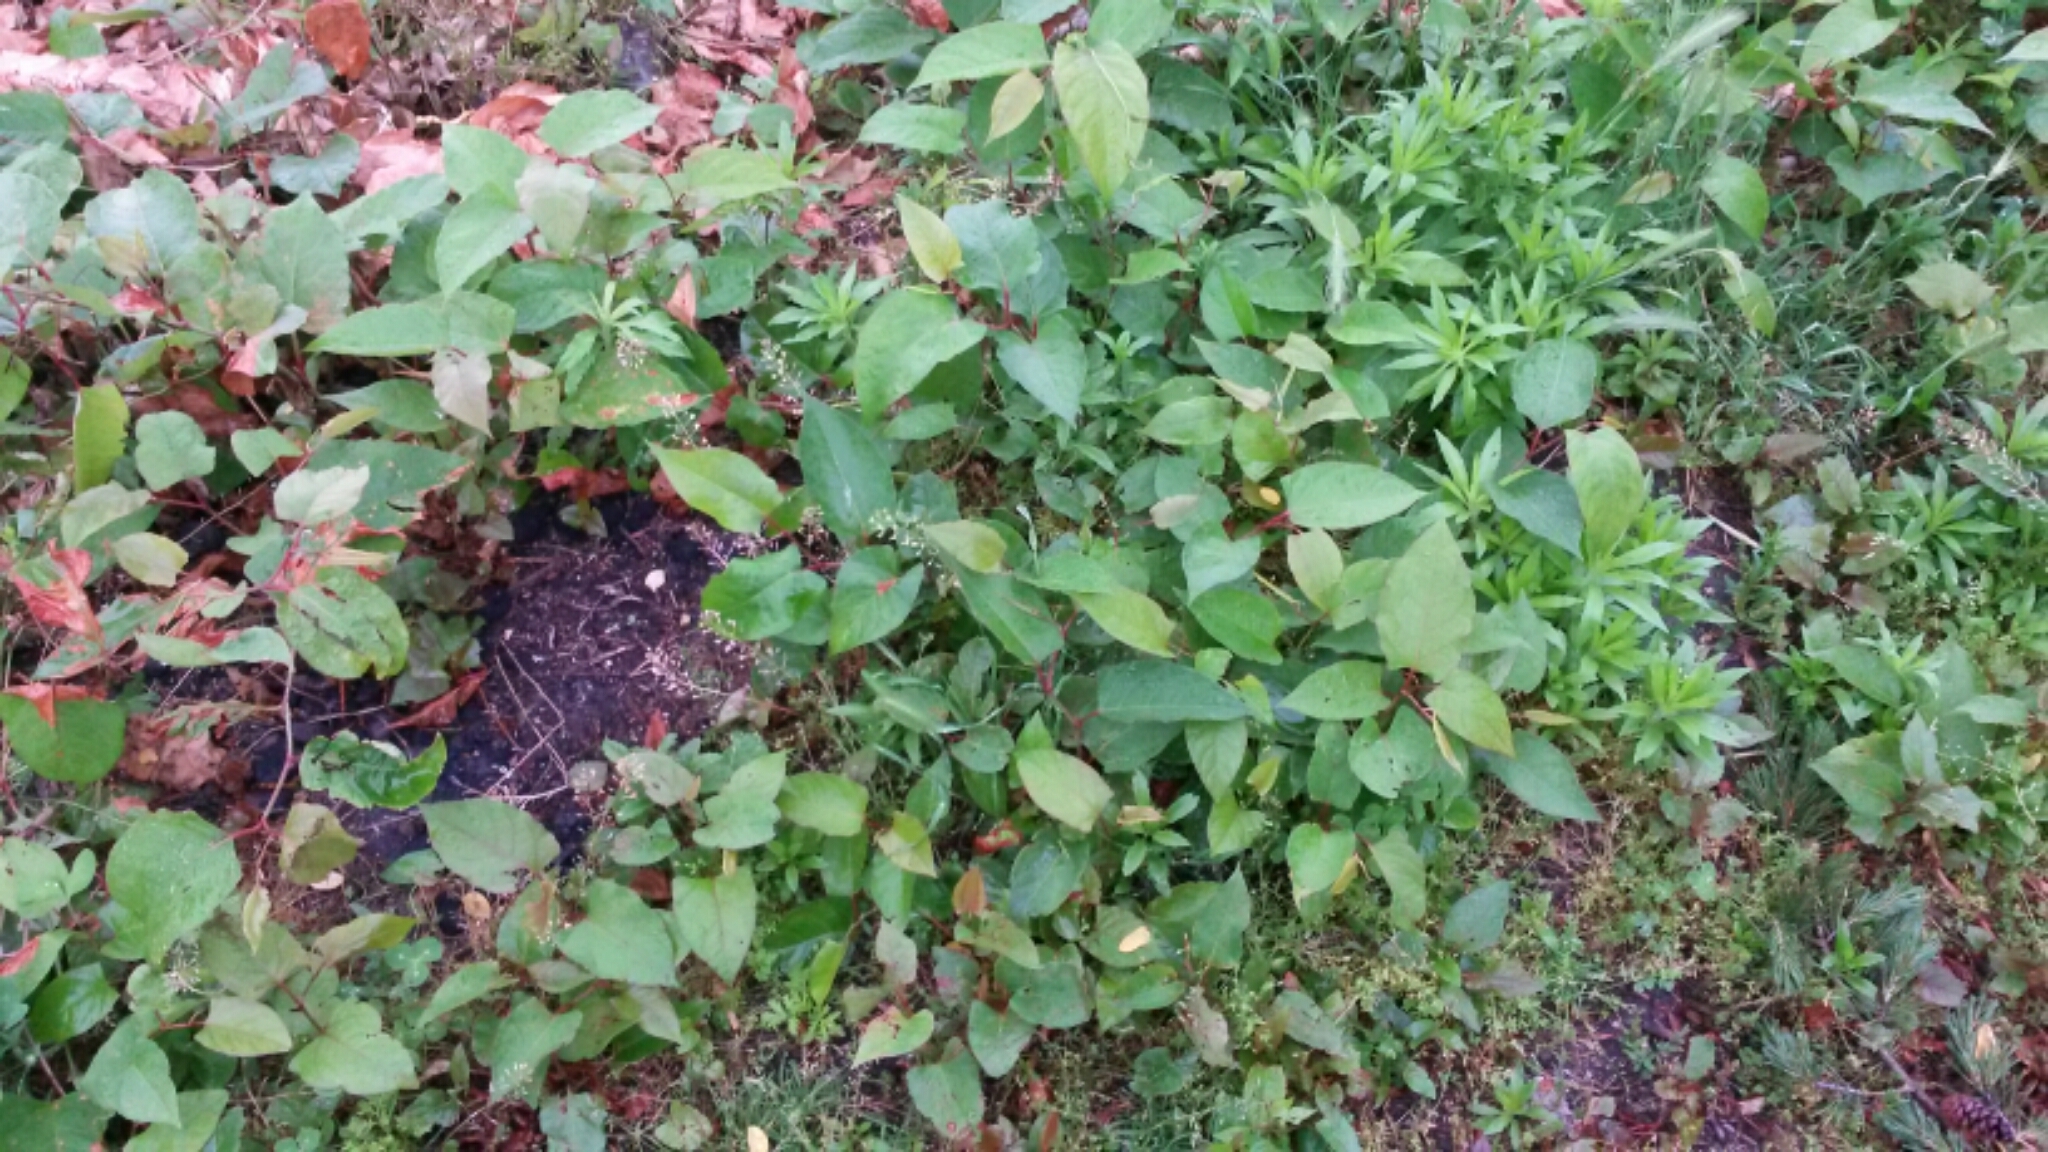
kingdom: Plantae
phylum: Tracheophyta
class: Magnoliopsida
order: Caryophyllales
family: Polygonaceae
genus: Reynoutria
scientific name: Reynoutria japonica
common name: Japanese knotweed
